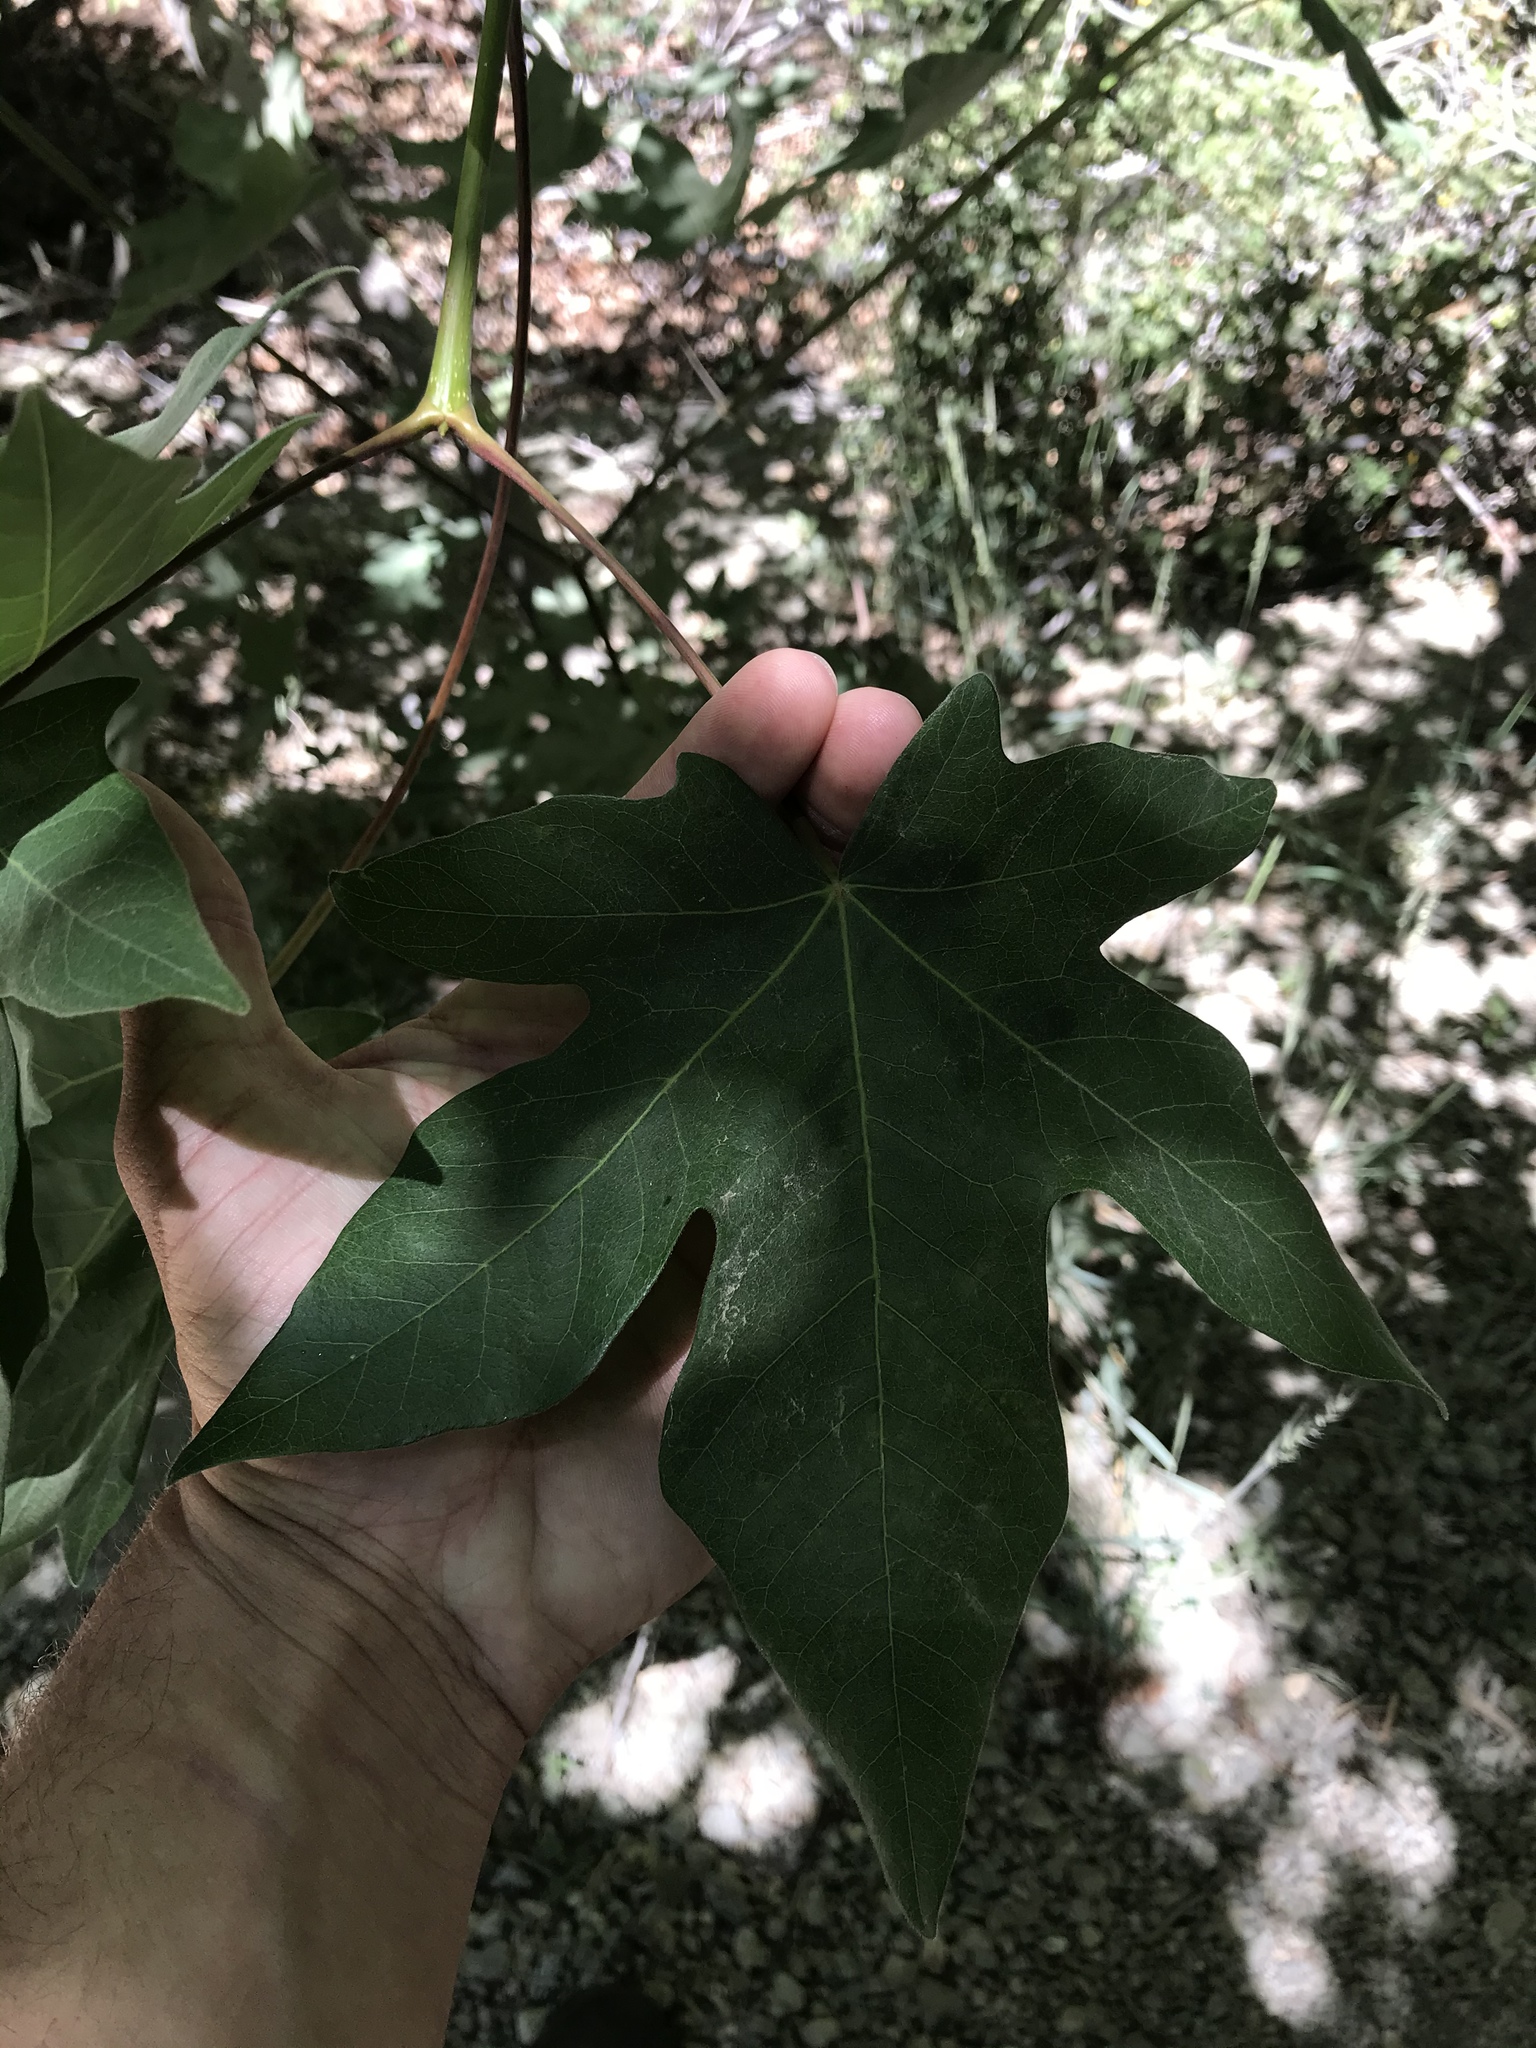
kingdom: Plantae
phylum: Tracheophyta
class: Magnoliopsida
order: Sapindales
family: Sapindaceae
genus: Acer
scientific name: Acer macrophyllum
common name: Oregon maple
